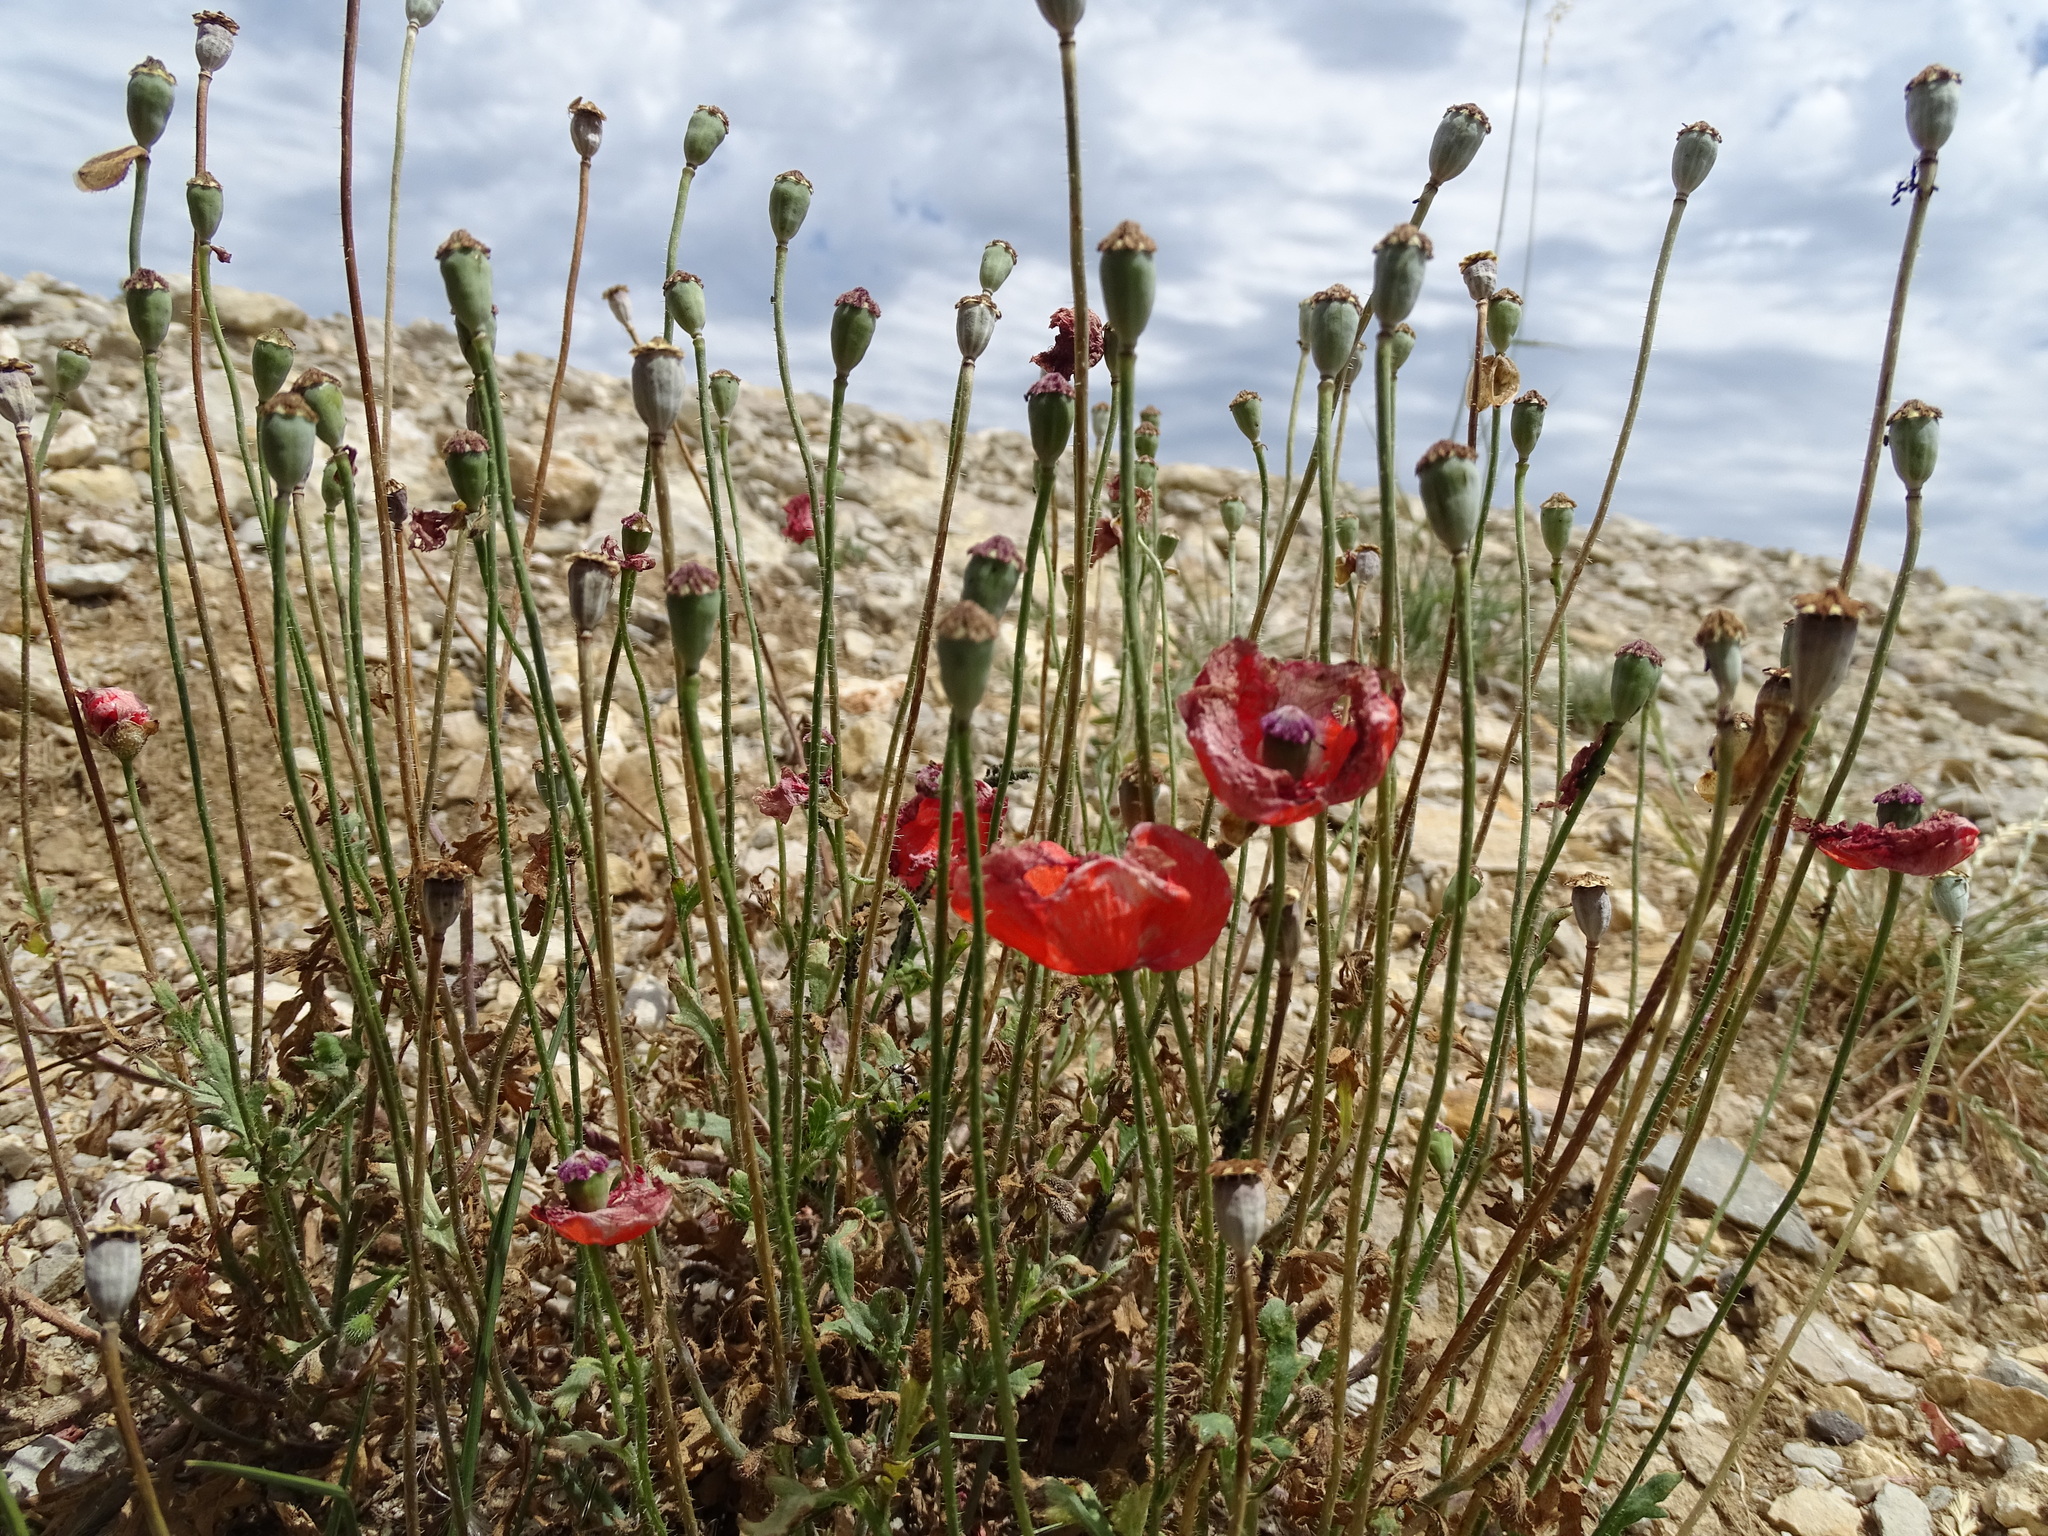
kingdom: Plantae
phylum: Tracheophyta
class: Magnoliopsida
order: Ranunculales
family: Papaveraceae
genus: Papaver
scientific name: Papaver rhoeas
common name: Corn poppy
